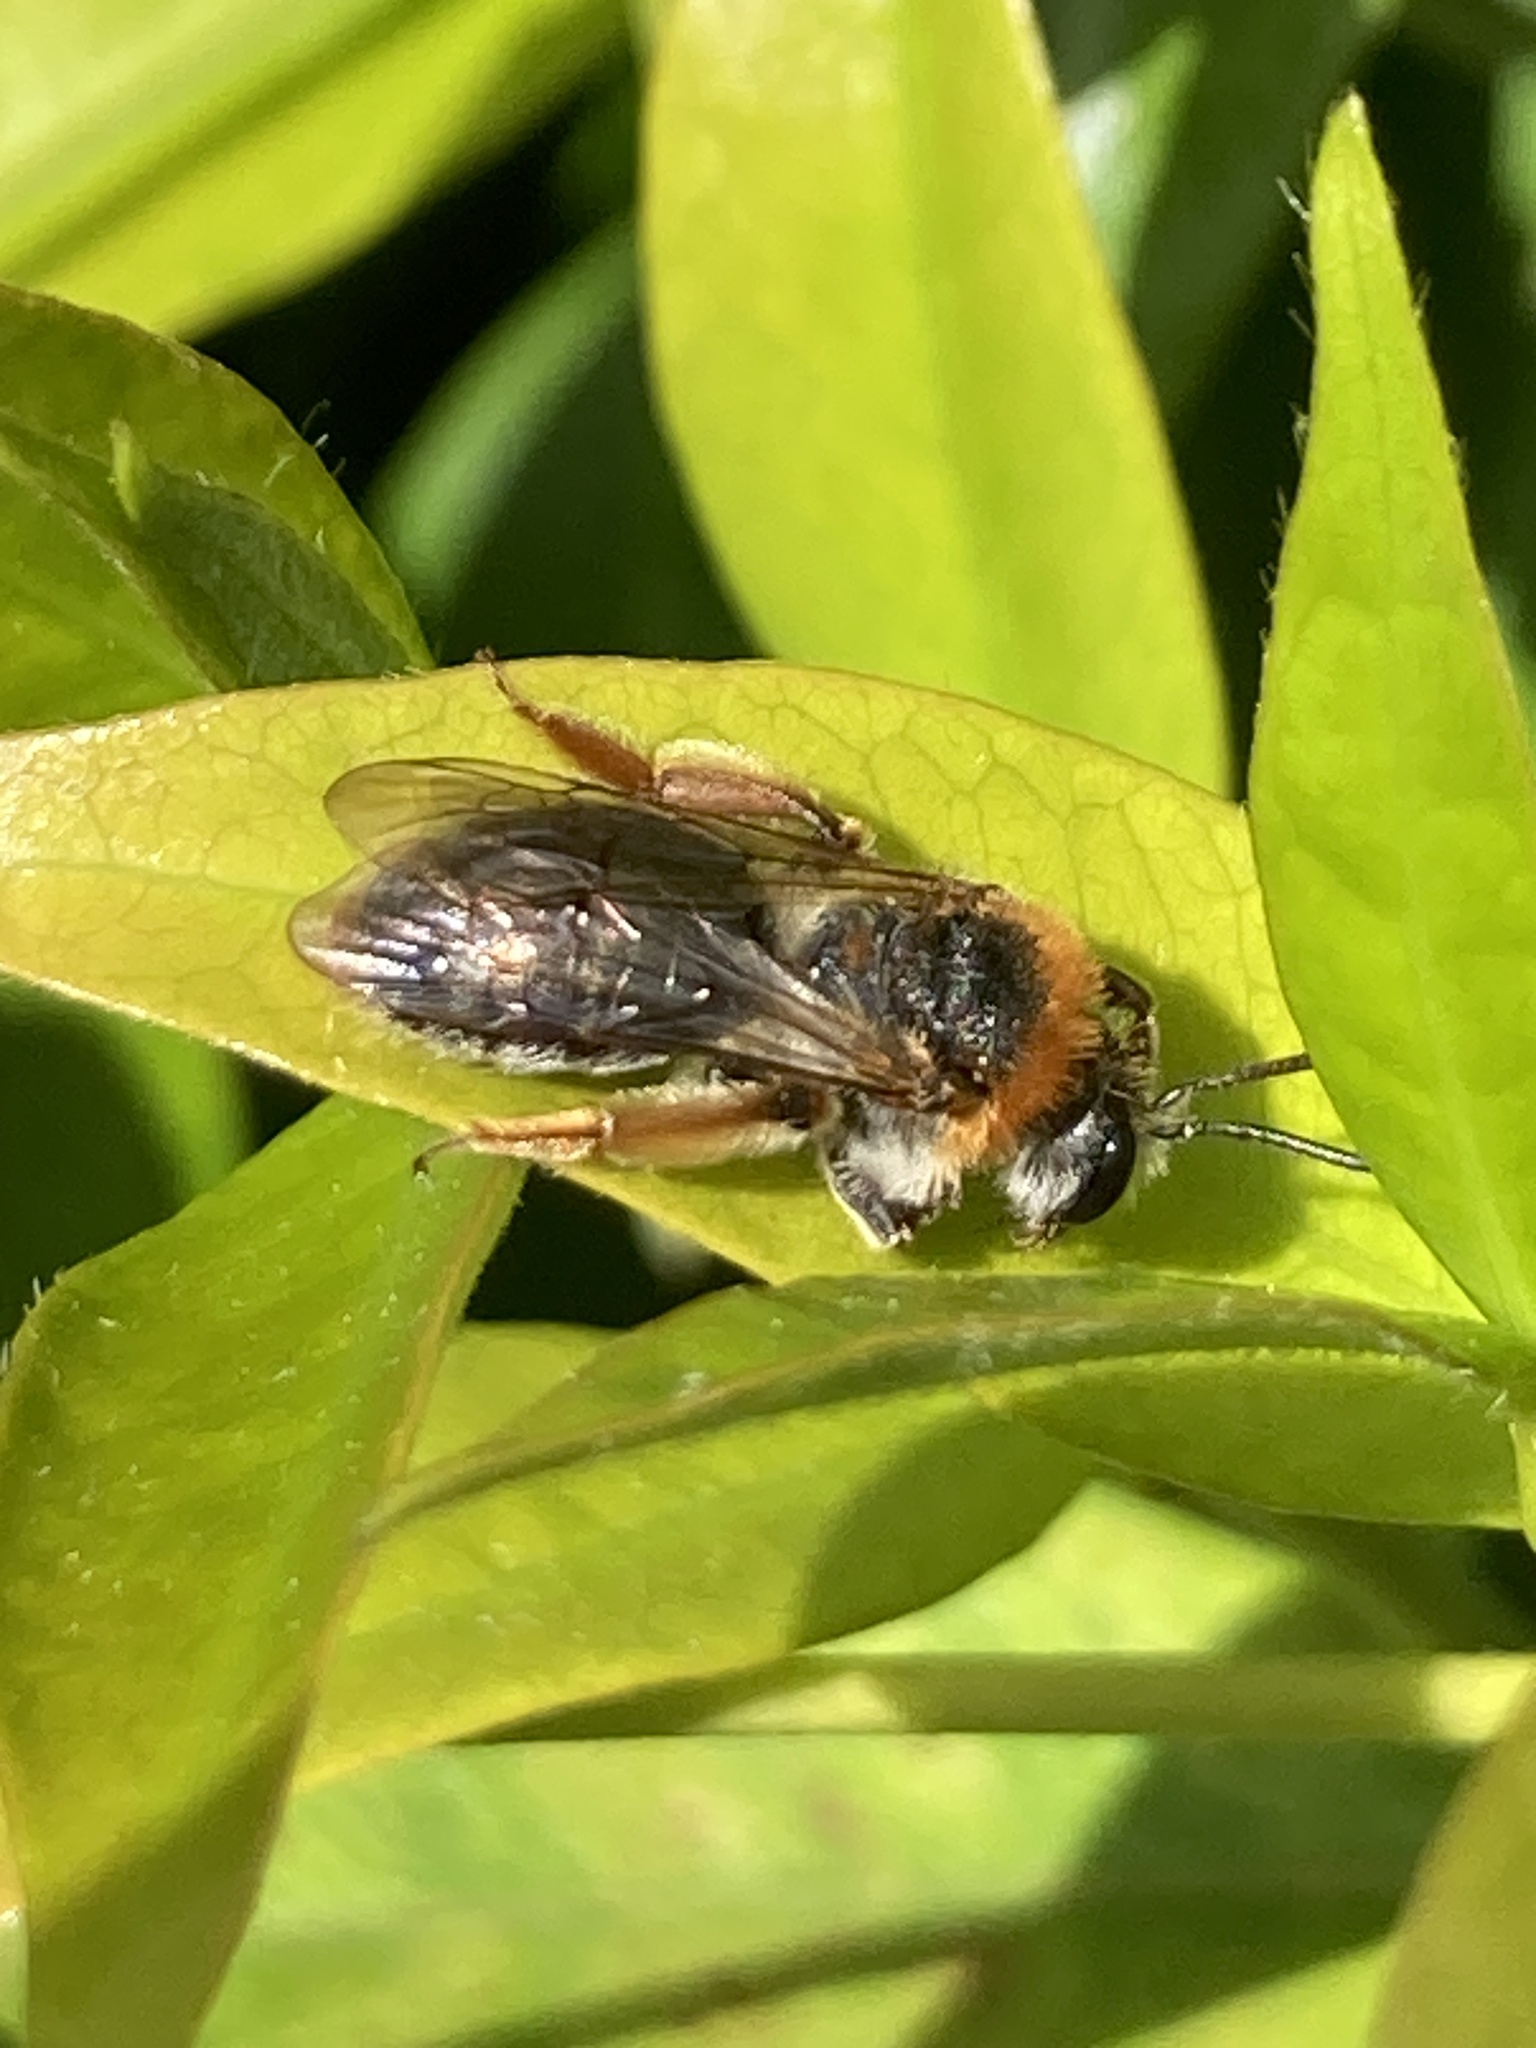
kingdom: Animalia
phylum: Arthropoda
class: Insecta
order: Hymenoptera
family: Andrenidae
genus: Andrena
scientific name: Andrena haemorrhoa
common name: Early mining bee
